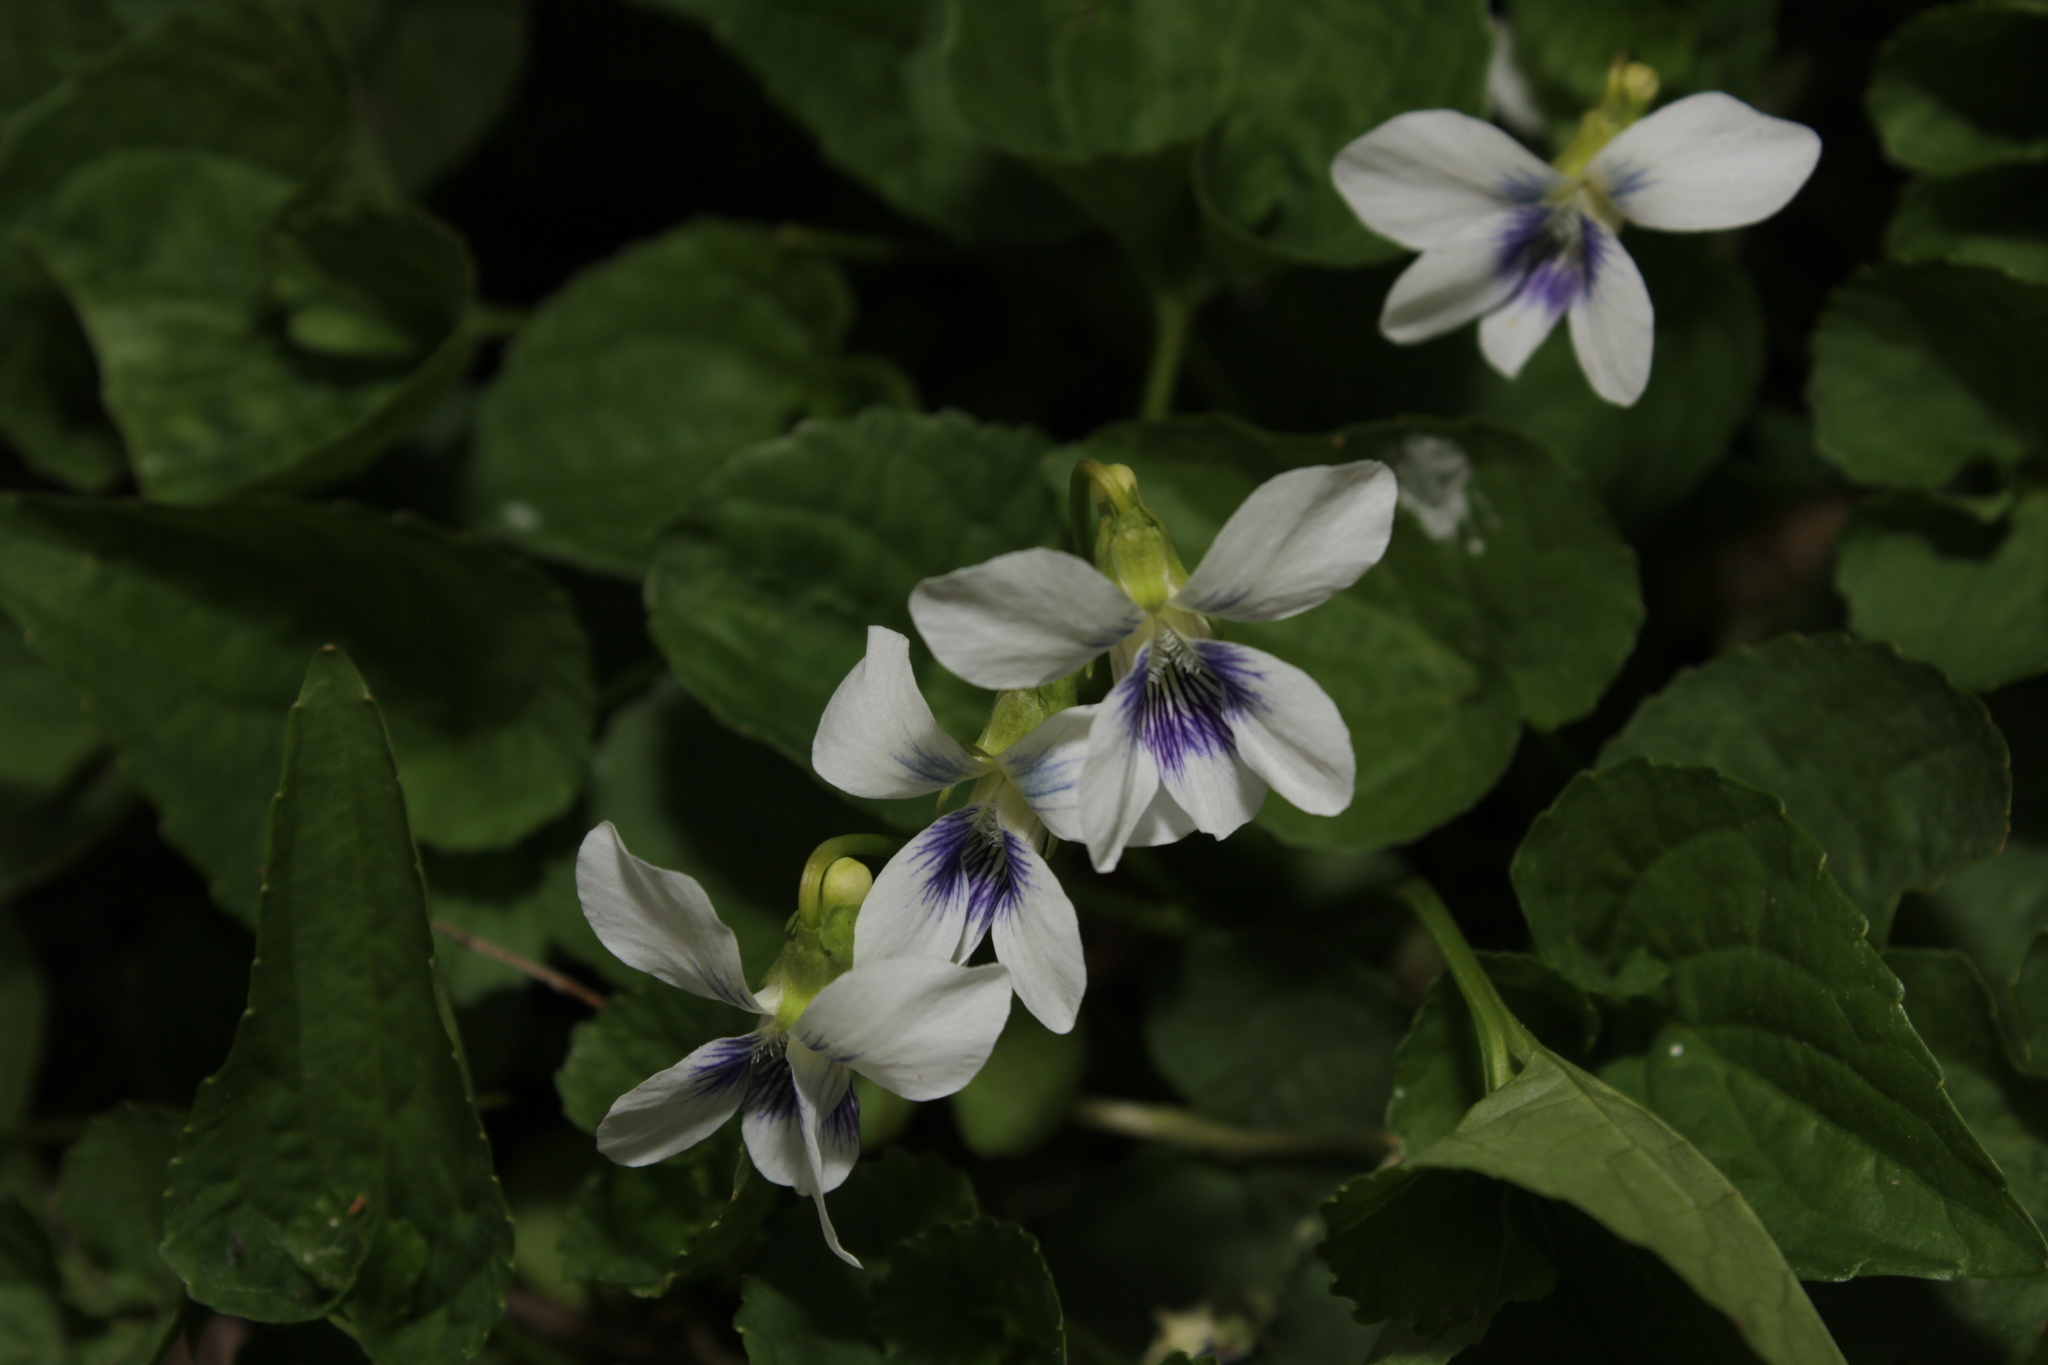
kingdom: Plantae
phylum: Tracheophyta
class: Magnoliopsida
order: Malpighiales
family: Violaceae
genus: Viola
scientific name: Viola sororia
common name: Dooryard violet
